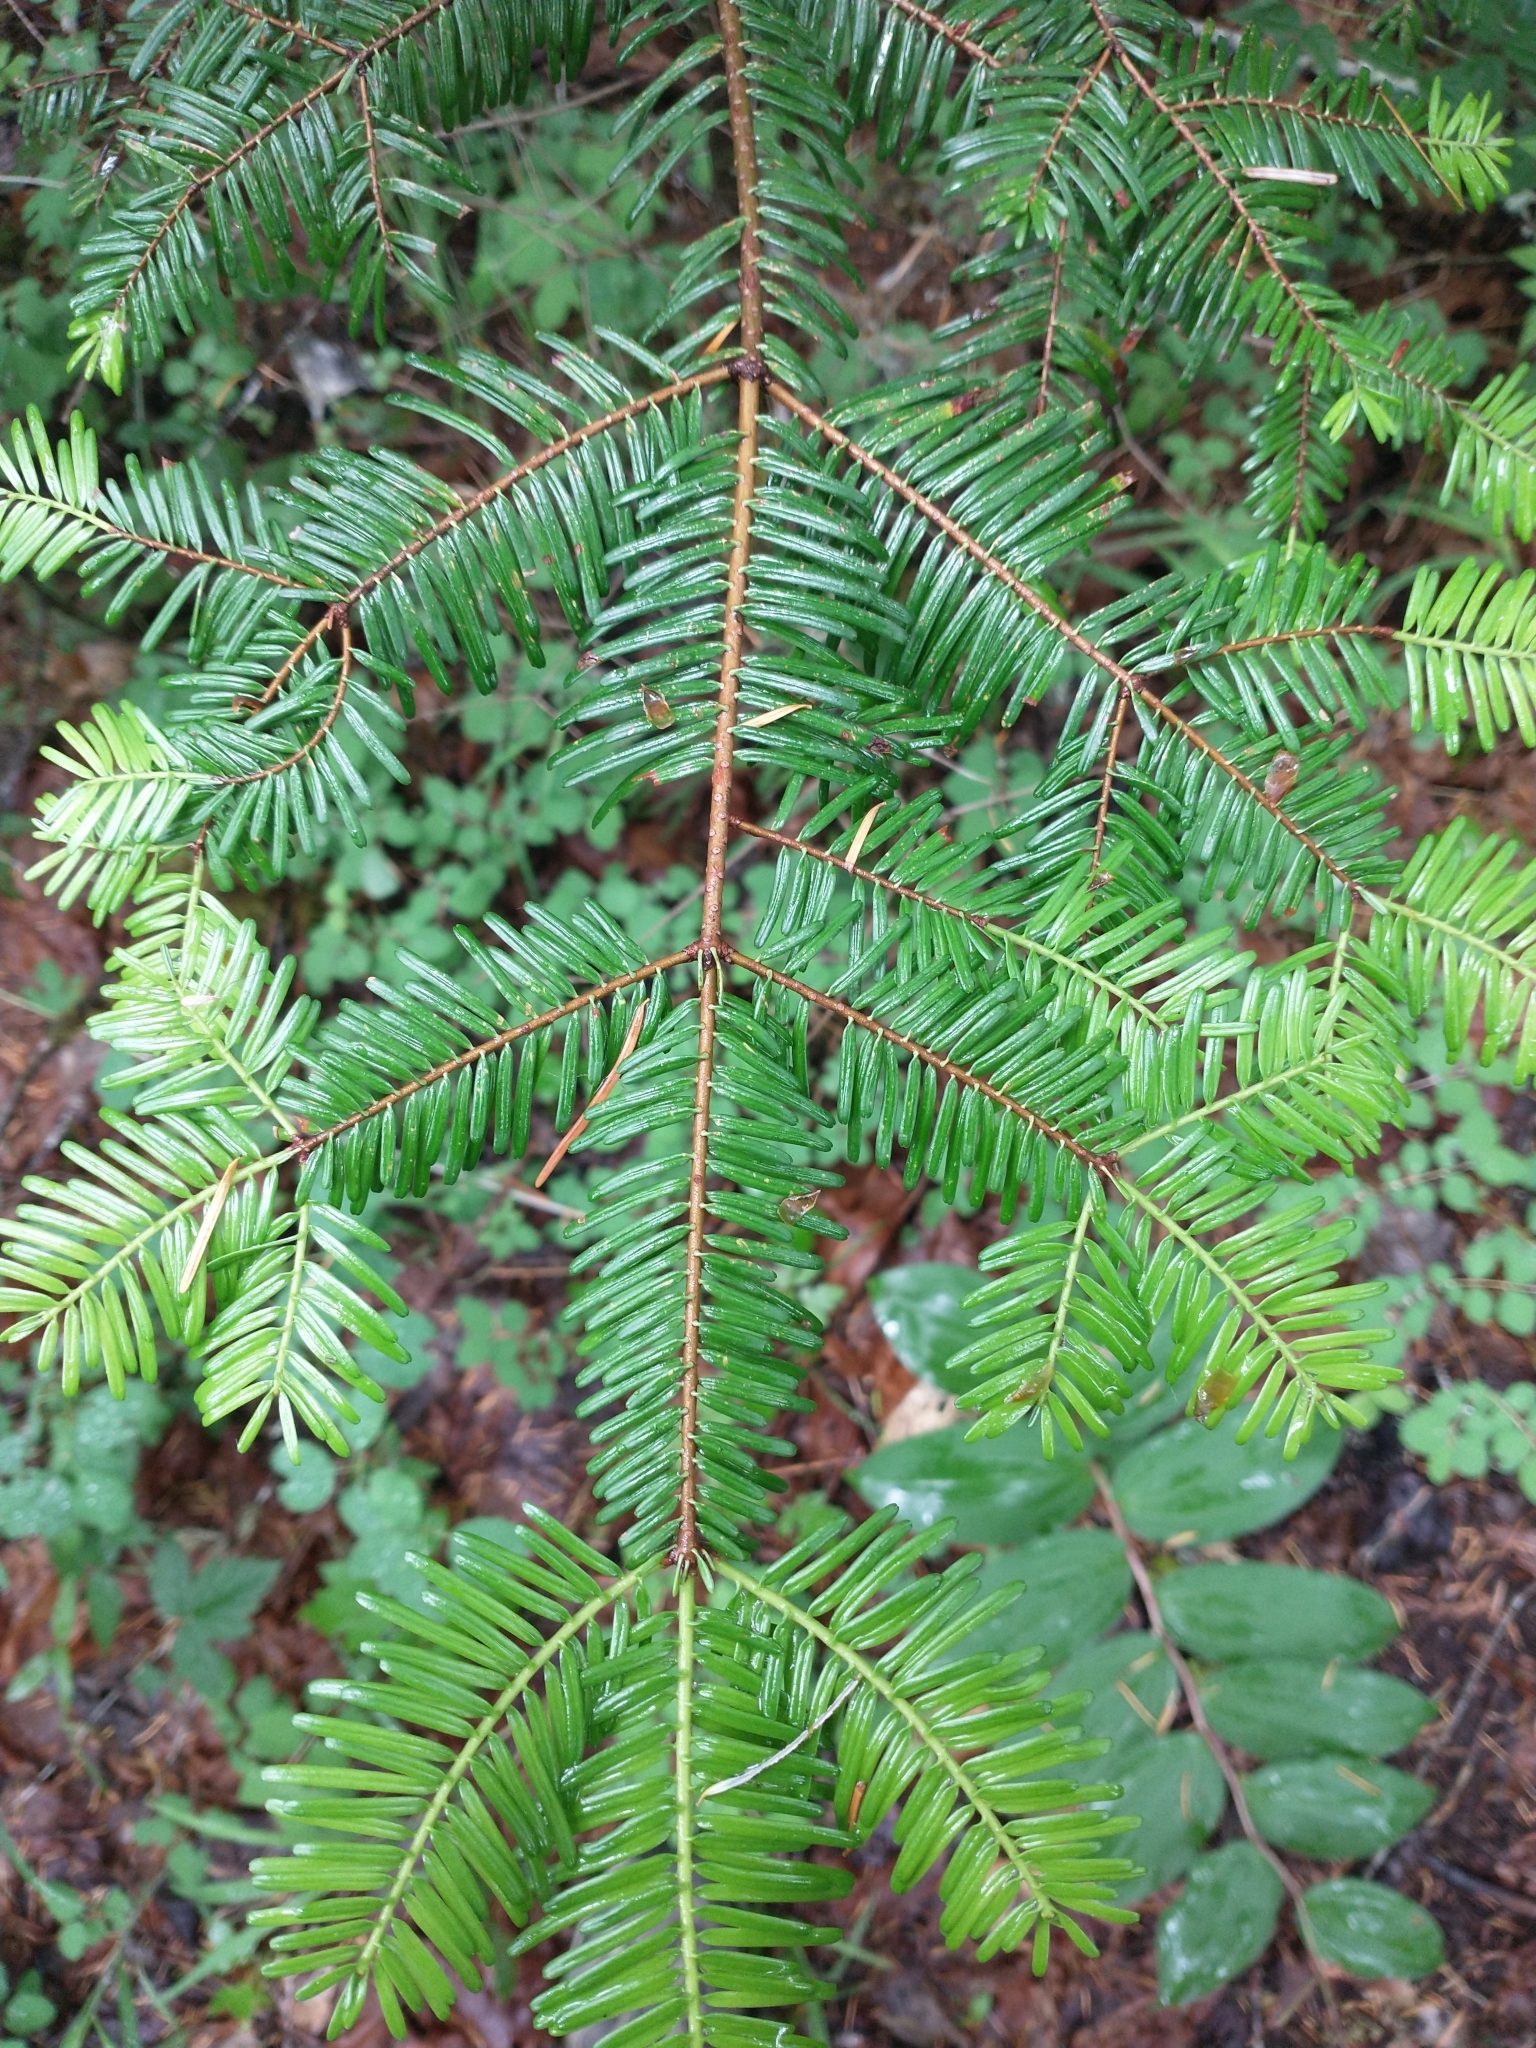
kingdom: Plantae
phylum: Tracheophyta
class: Pinopsida
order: Pinales
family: Pinaceae
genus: Abies
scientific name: Abies grandis
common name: Giant fir
